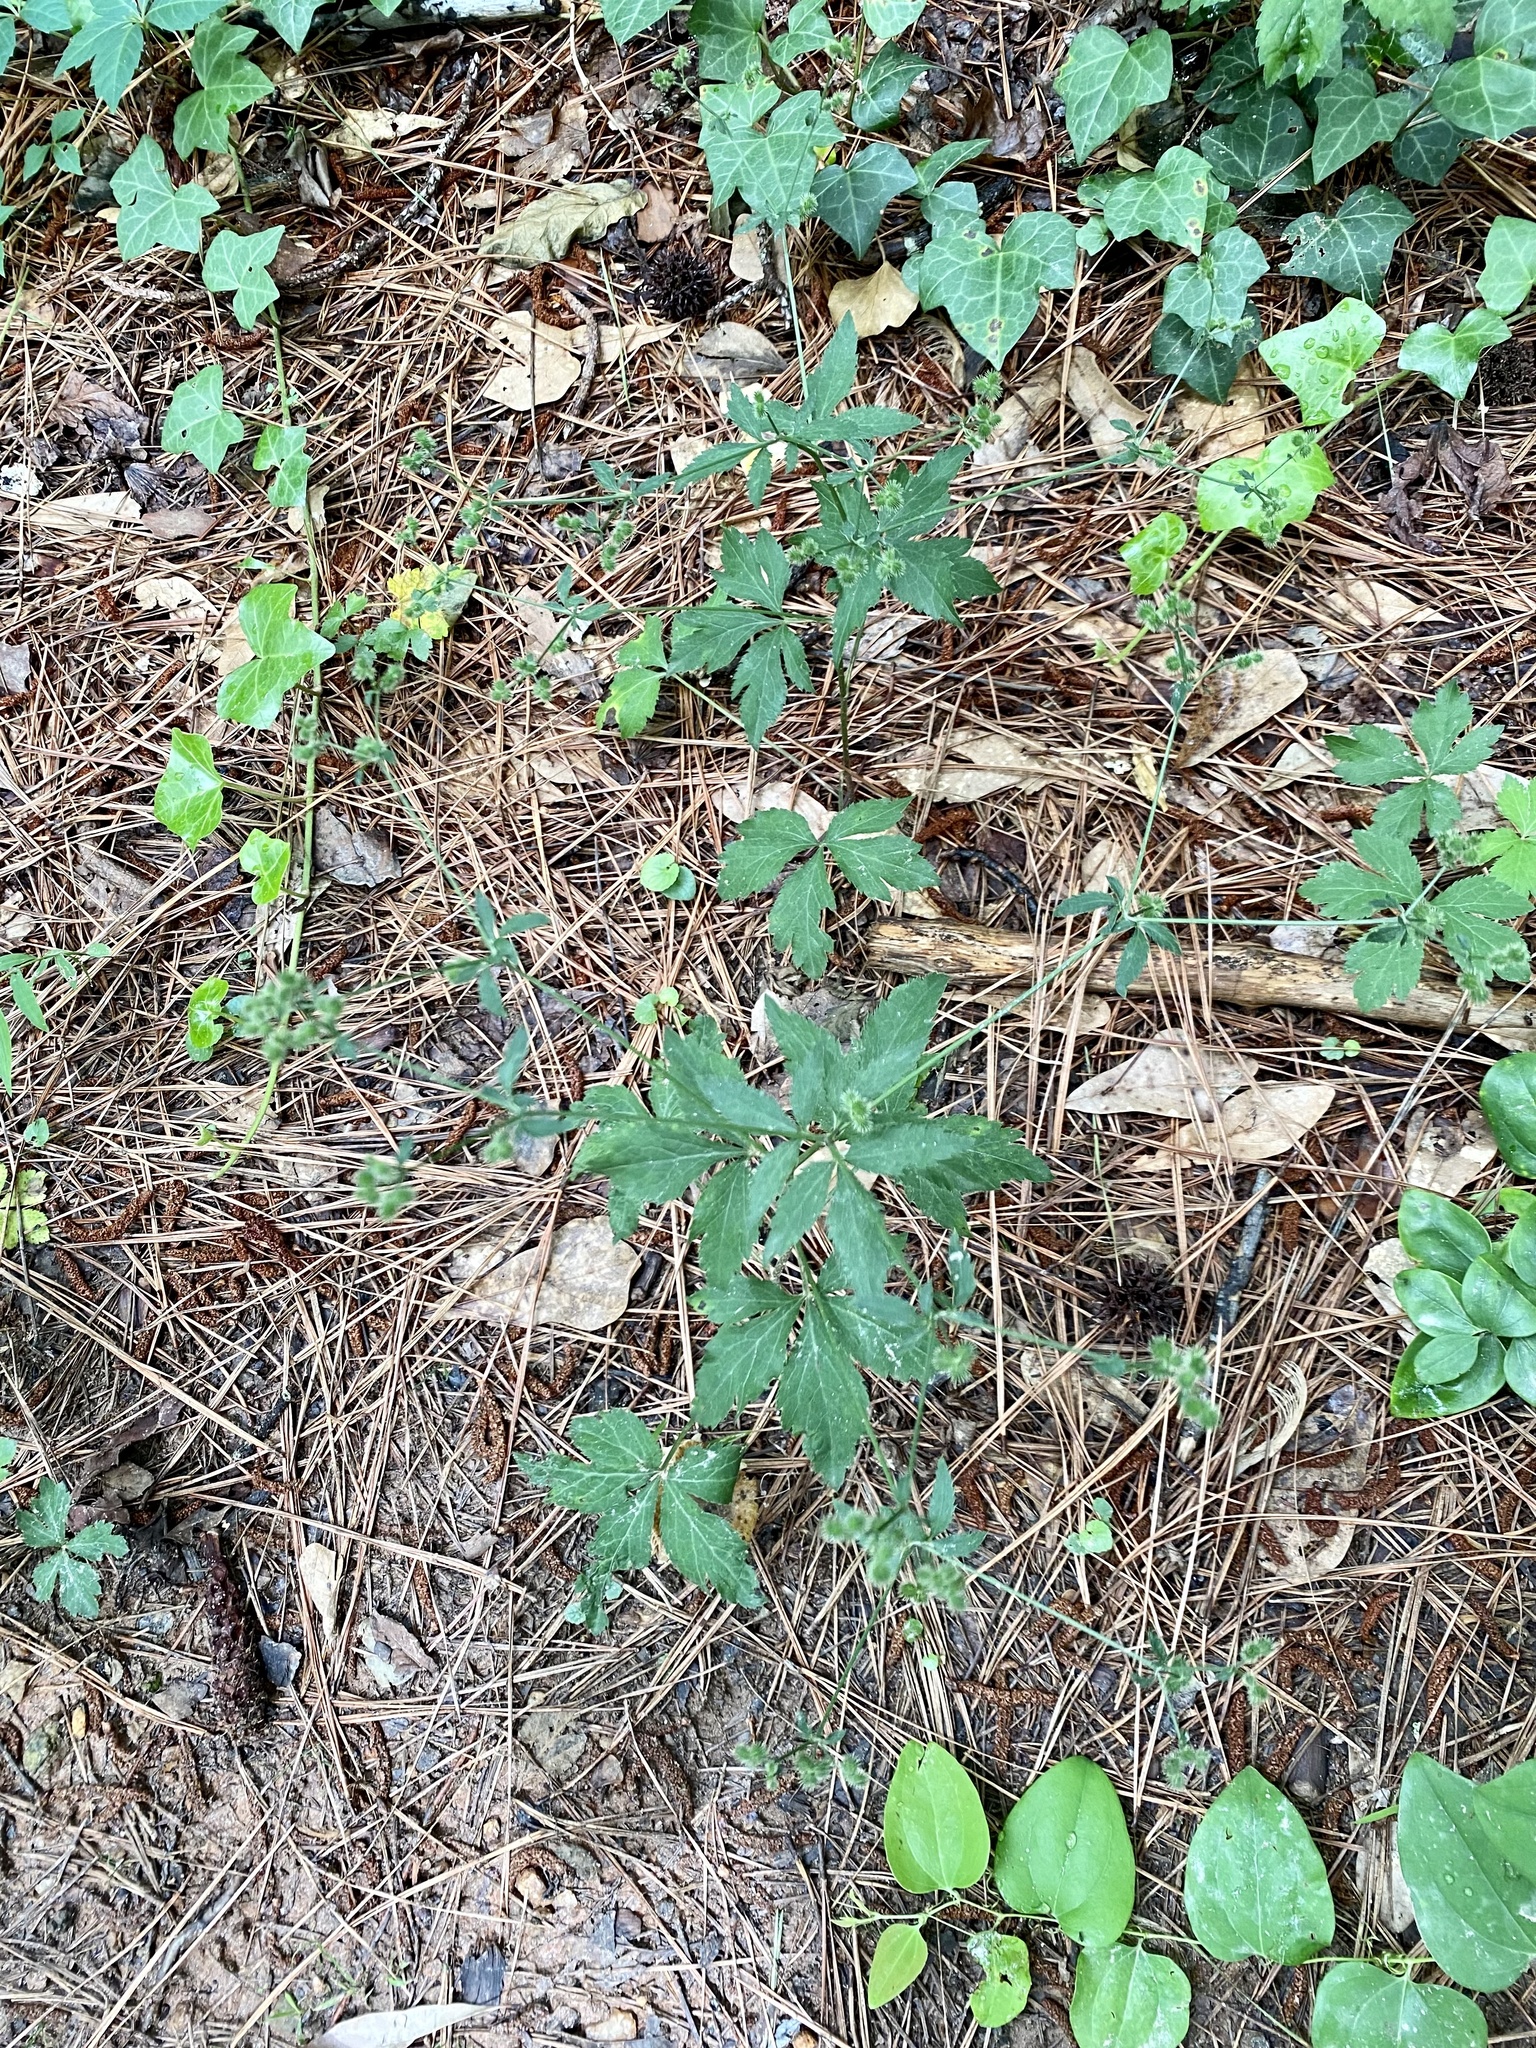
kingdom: Plantae
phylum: Tracheophyta
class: Magnoliopsida
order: Apiales
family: Apiaceae
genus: Sanicula
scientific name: Sanicula canadensis
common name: Canada sanicle
